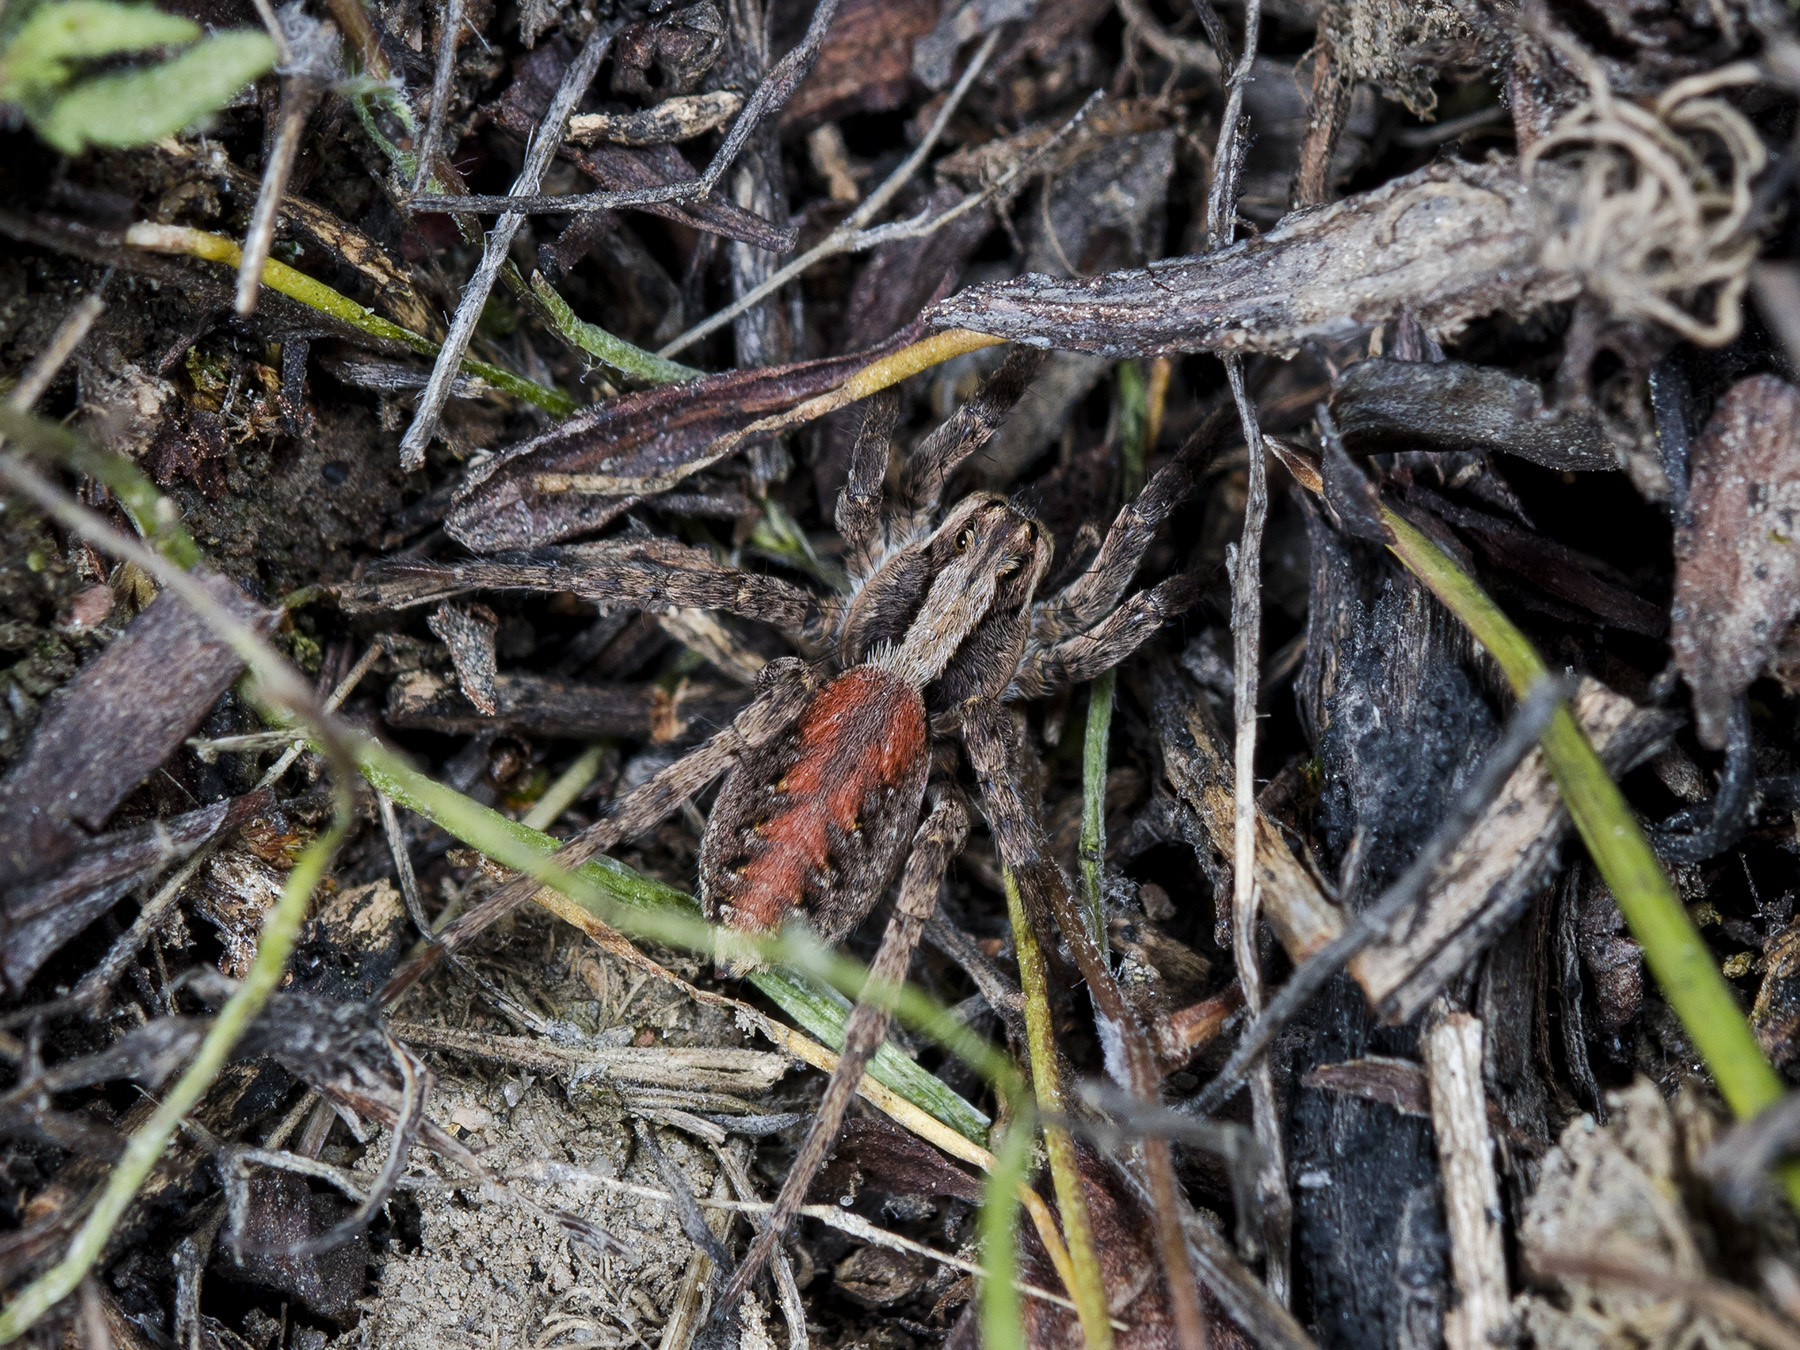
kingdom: Animalia
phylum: Arthropoda
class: Arachnida
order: Araneae
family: Lycosidae
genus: Alopecosa
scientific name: Alopecosa cursor
